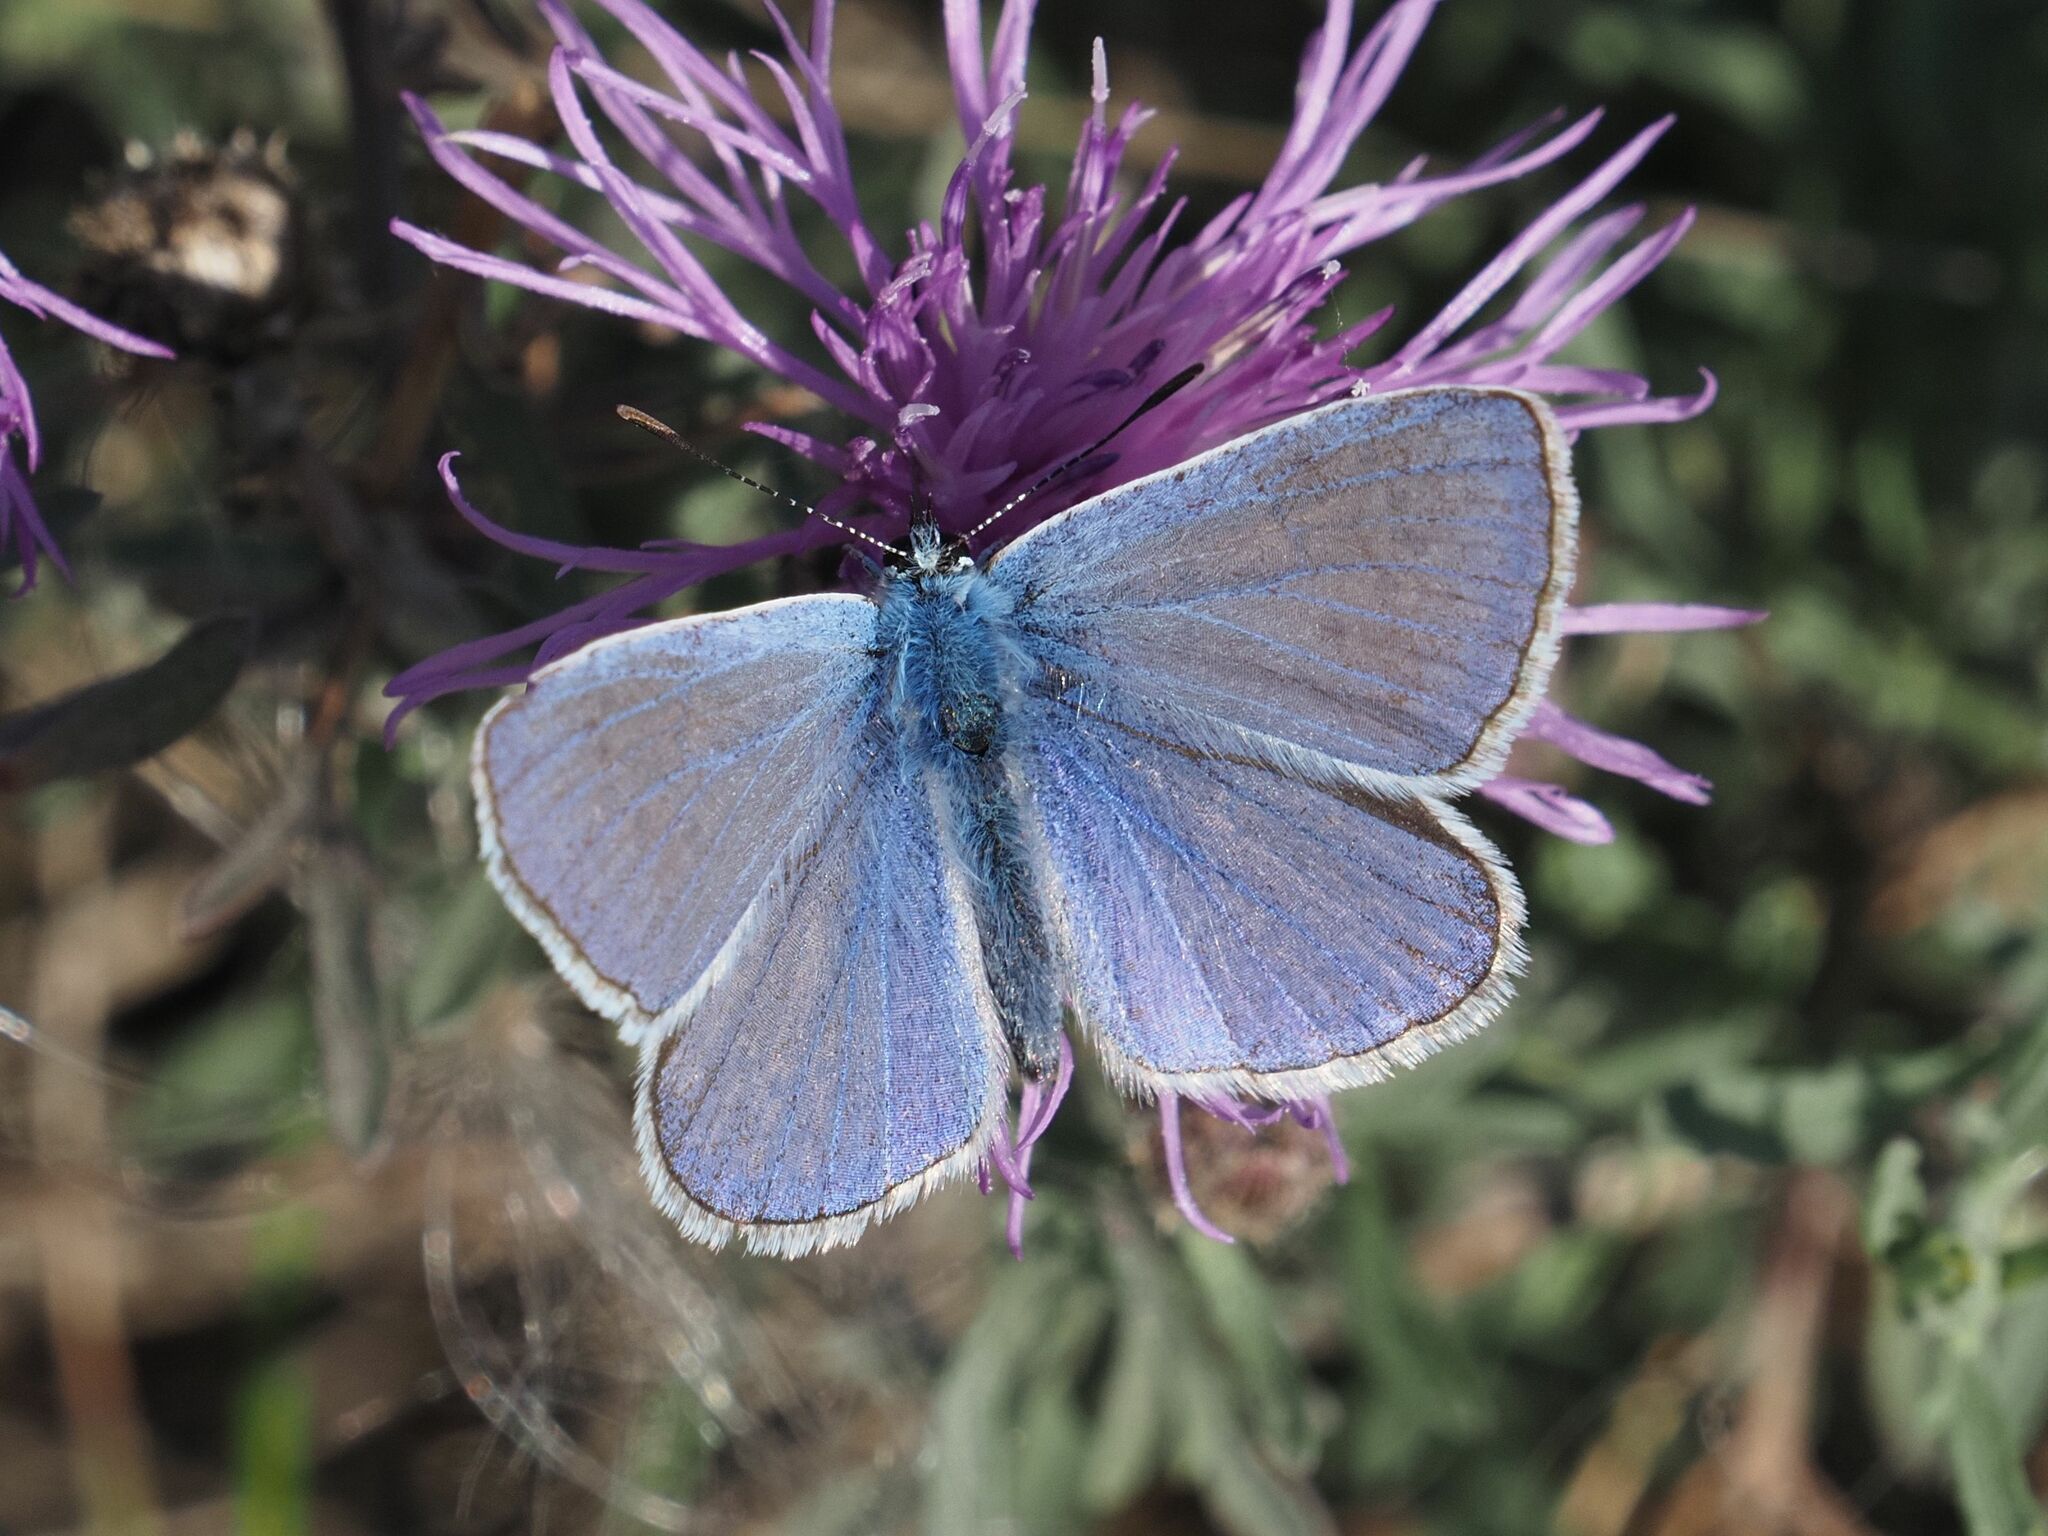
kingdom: Animalia
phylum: Arthropoda
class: Insecta
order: Lepidoptera
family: Lycaenidae
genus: Polyommatus
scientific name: Polyommatus icarus
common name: Common blue
